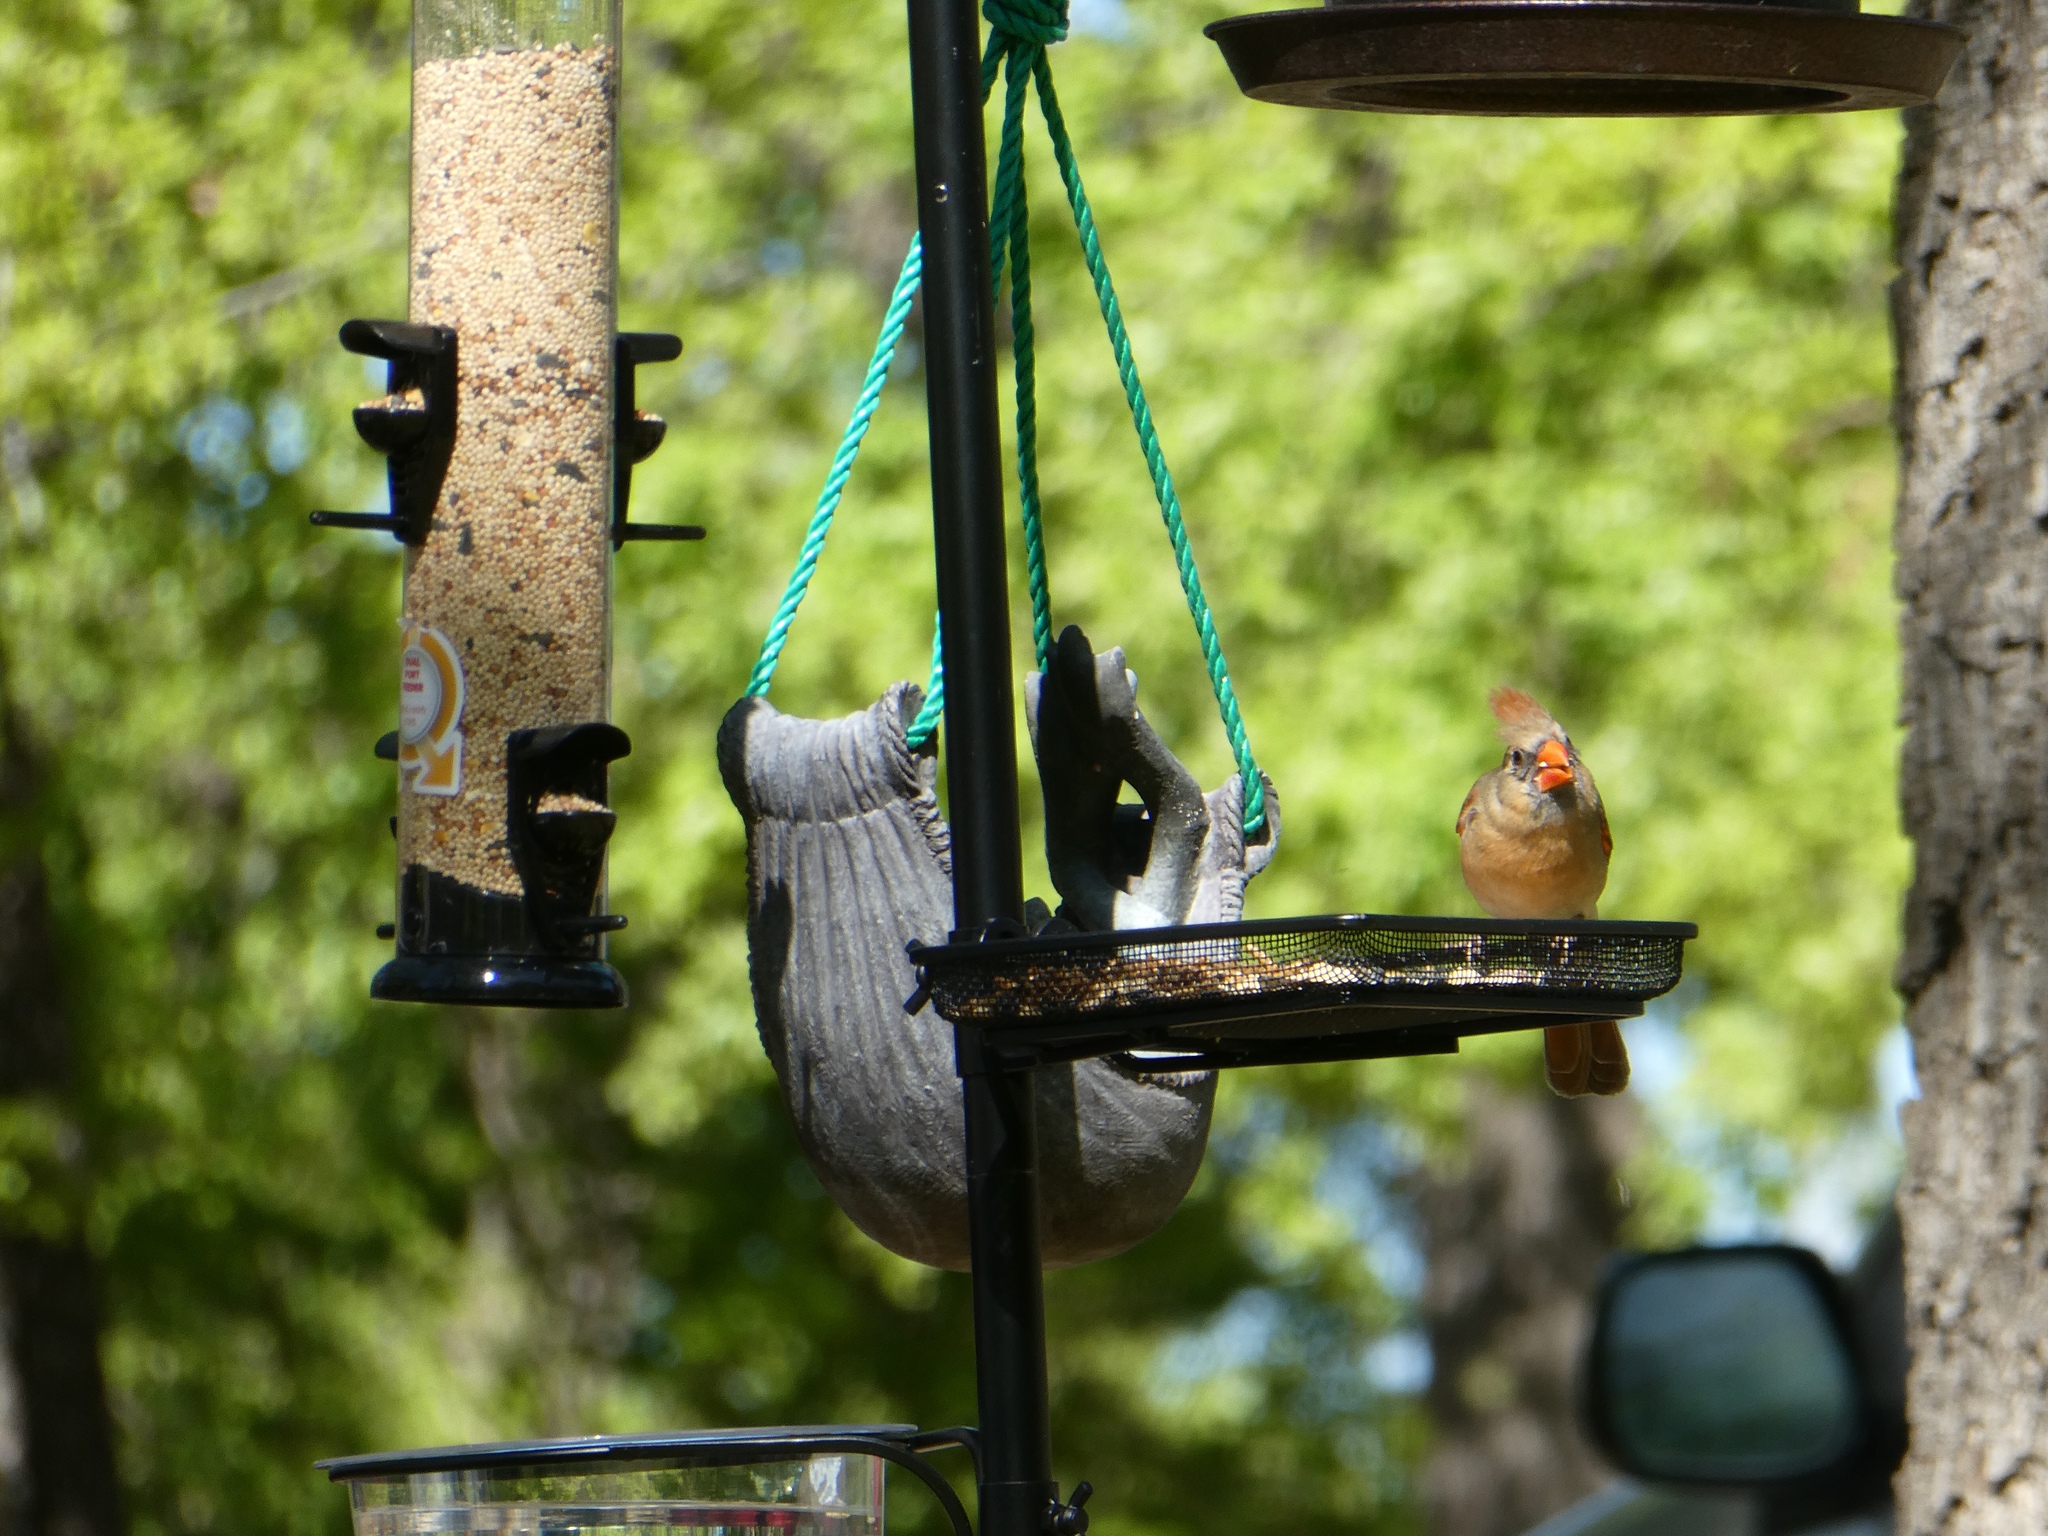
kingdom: Animalia
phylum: Chordata
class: Aves
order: Passeriformes
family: Cardinalidae
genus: Cardinalis
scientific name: Cardinalis cardinalis
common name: Northern cardinal
